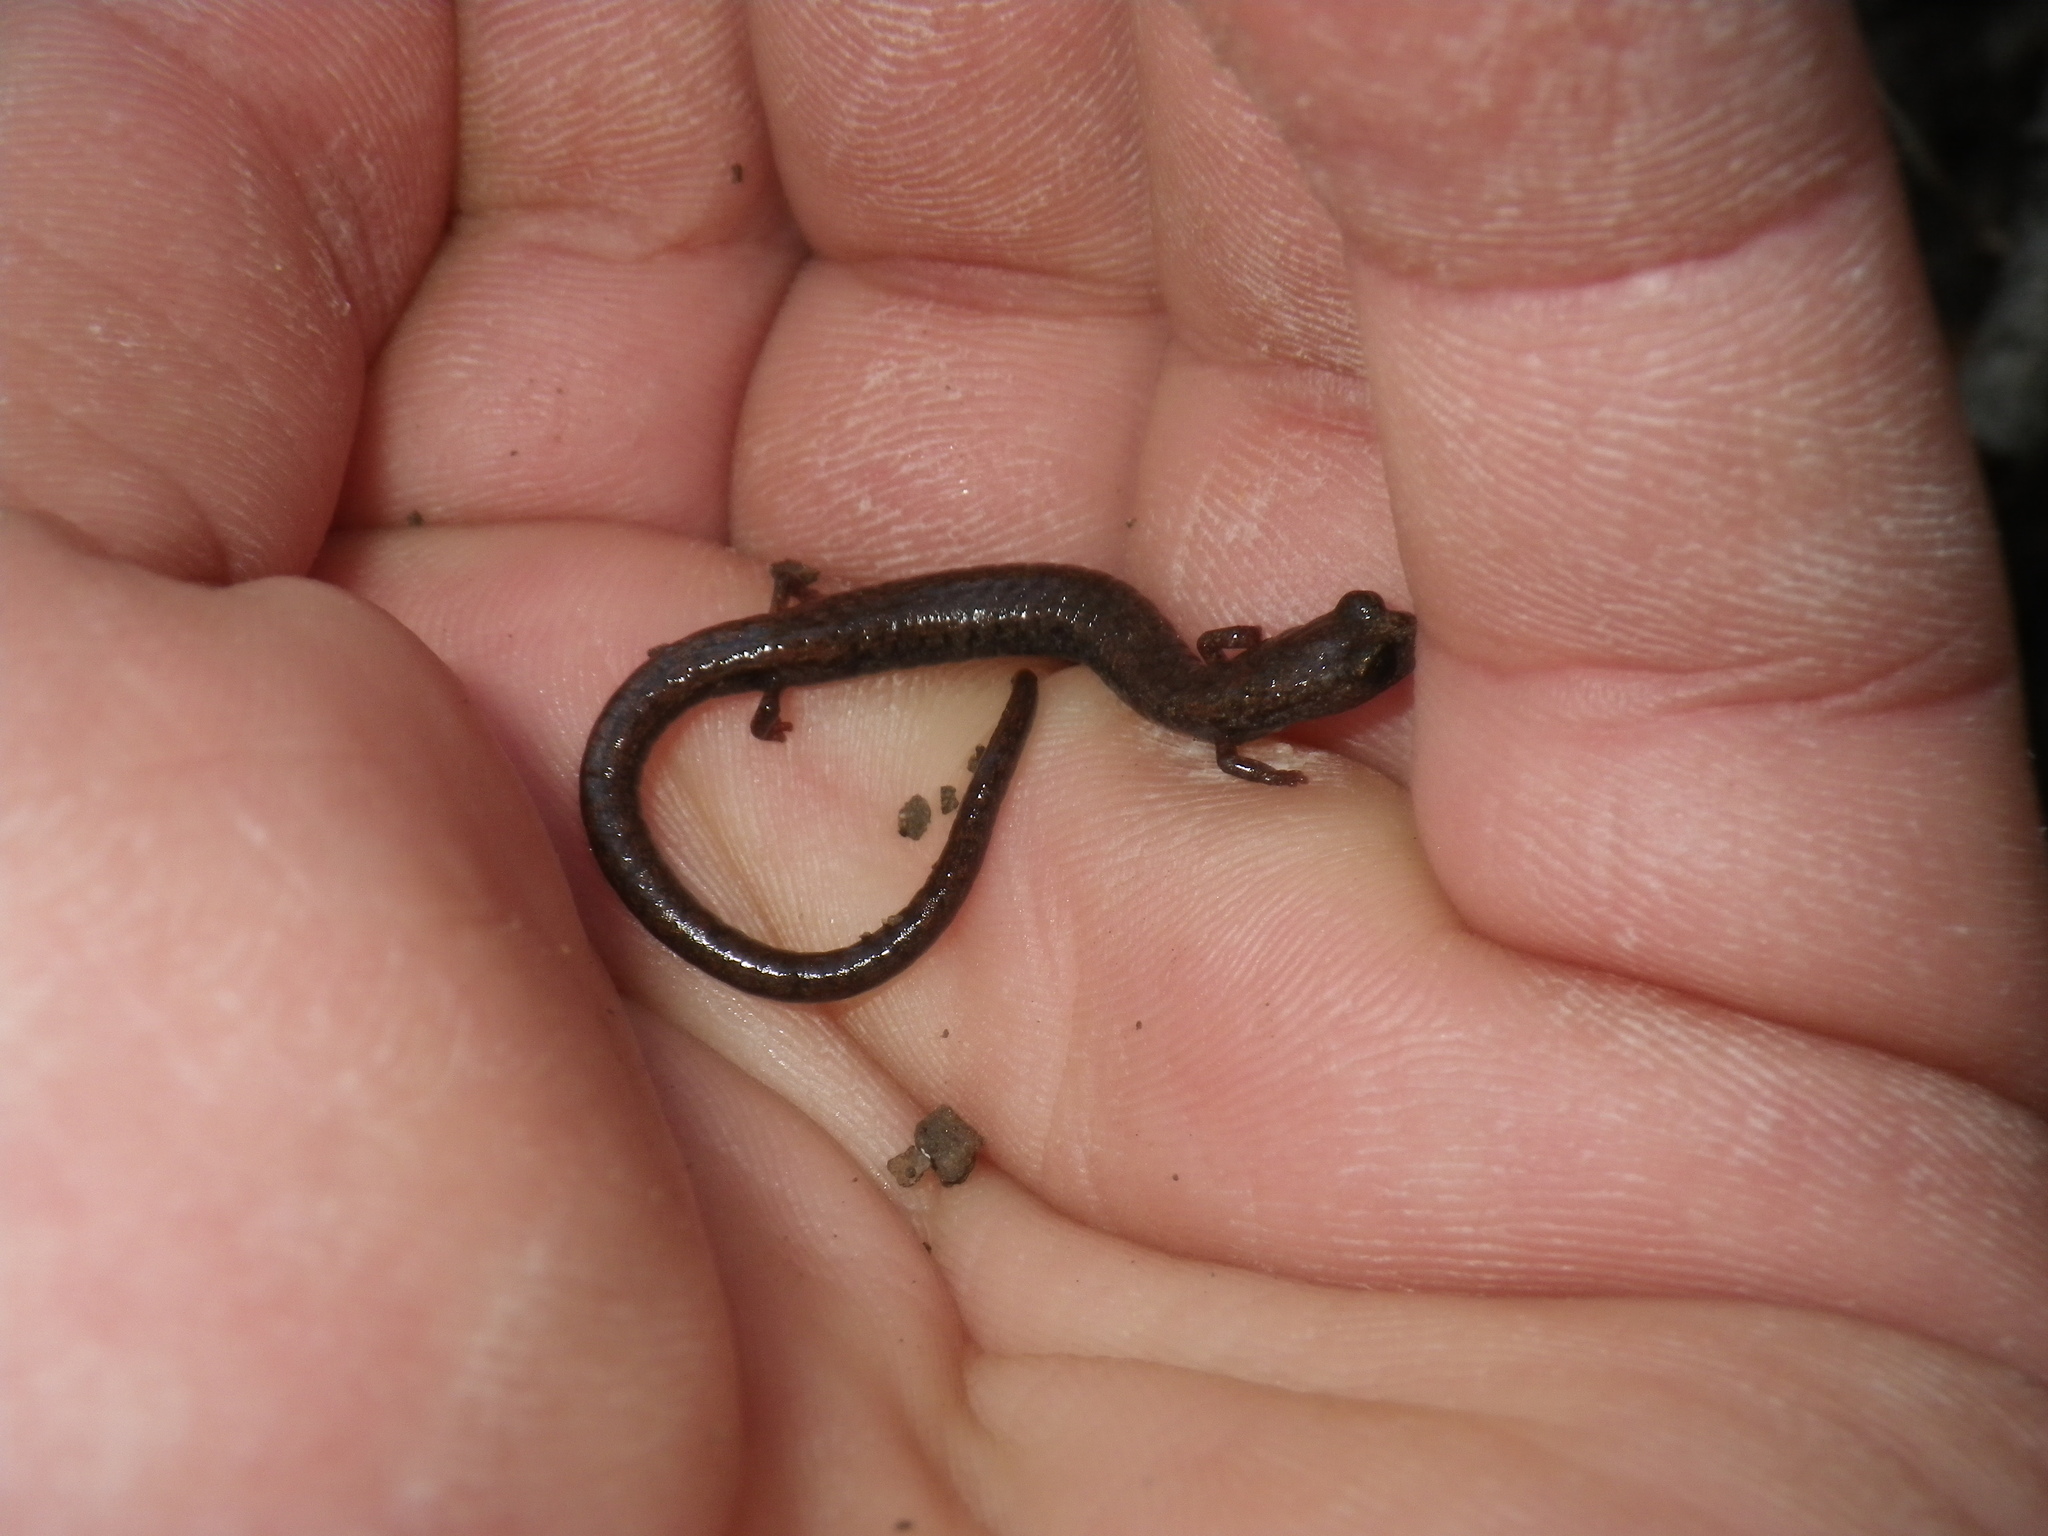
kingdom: Animalia
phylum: Chordata
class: Amphibia
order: Caudata
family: Plethodontidae
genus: Batrachoseps
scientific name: Batrachoseps nigriventris
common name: Black-bellied slender salamander
